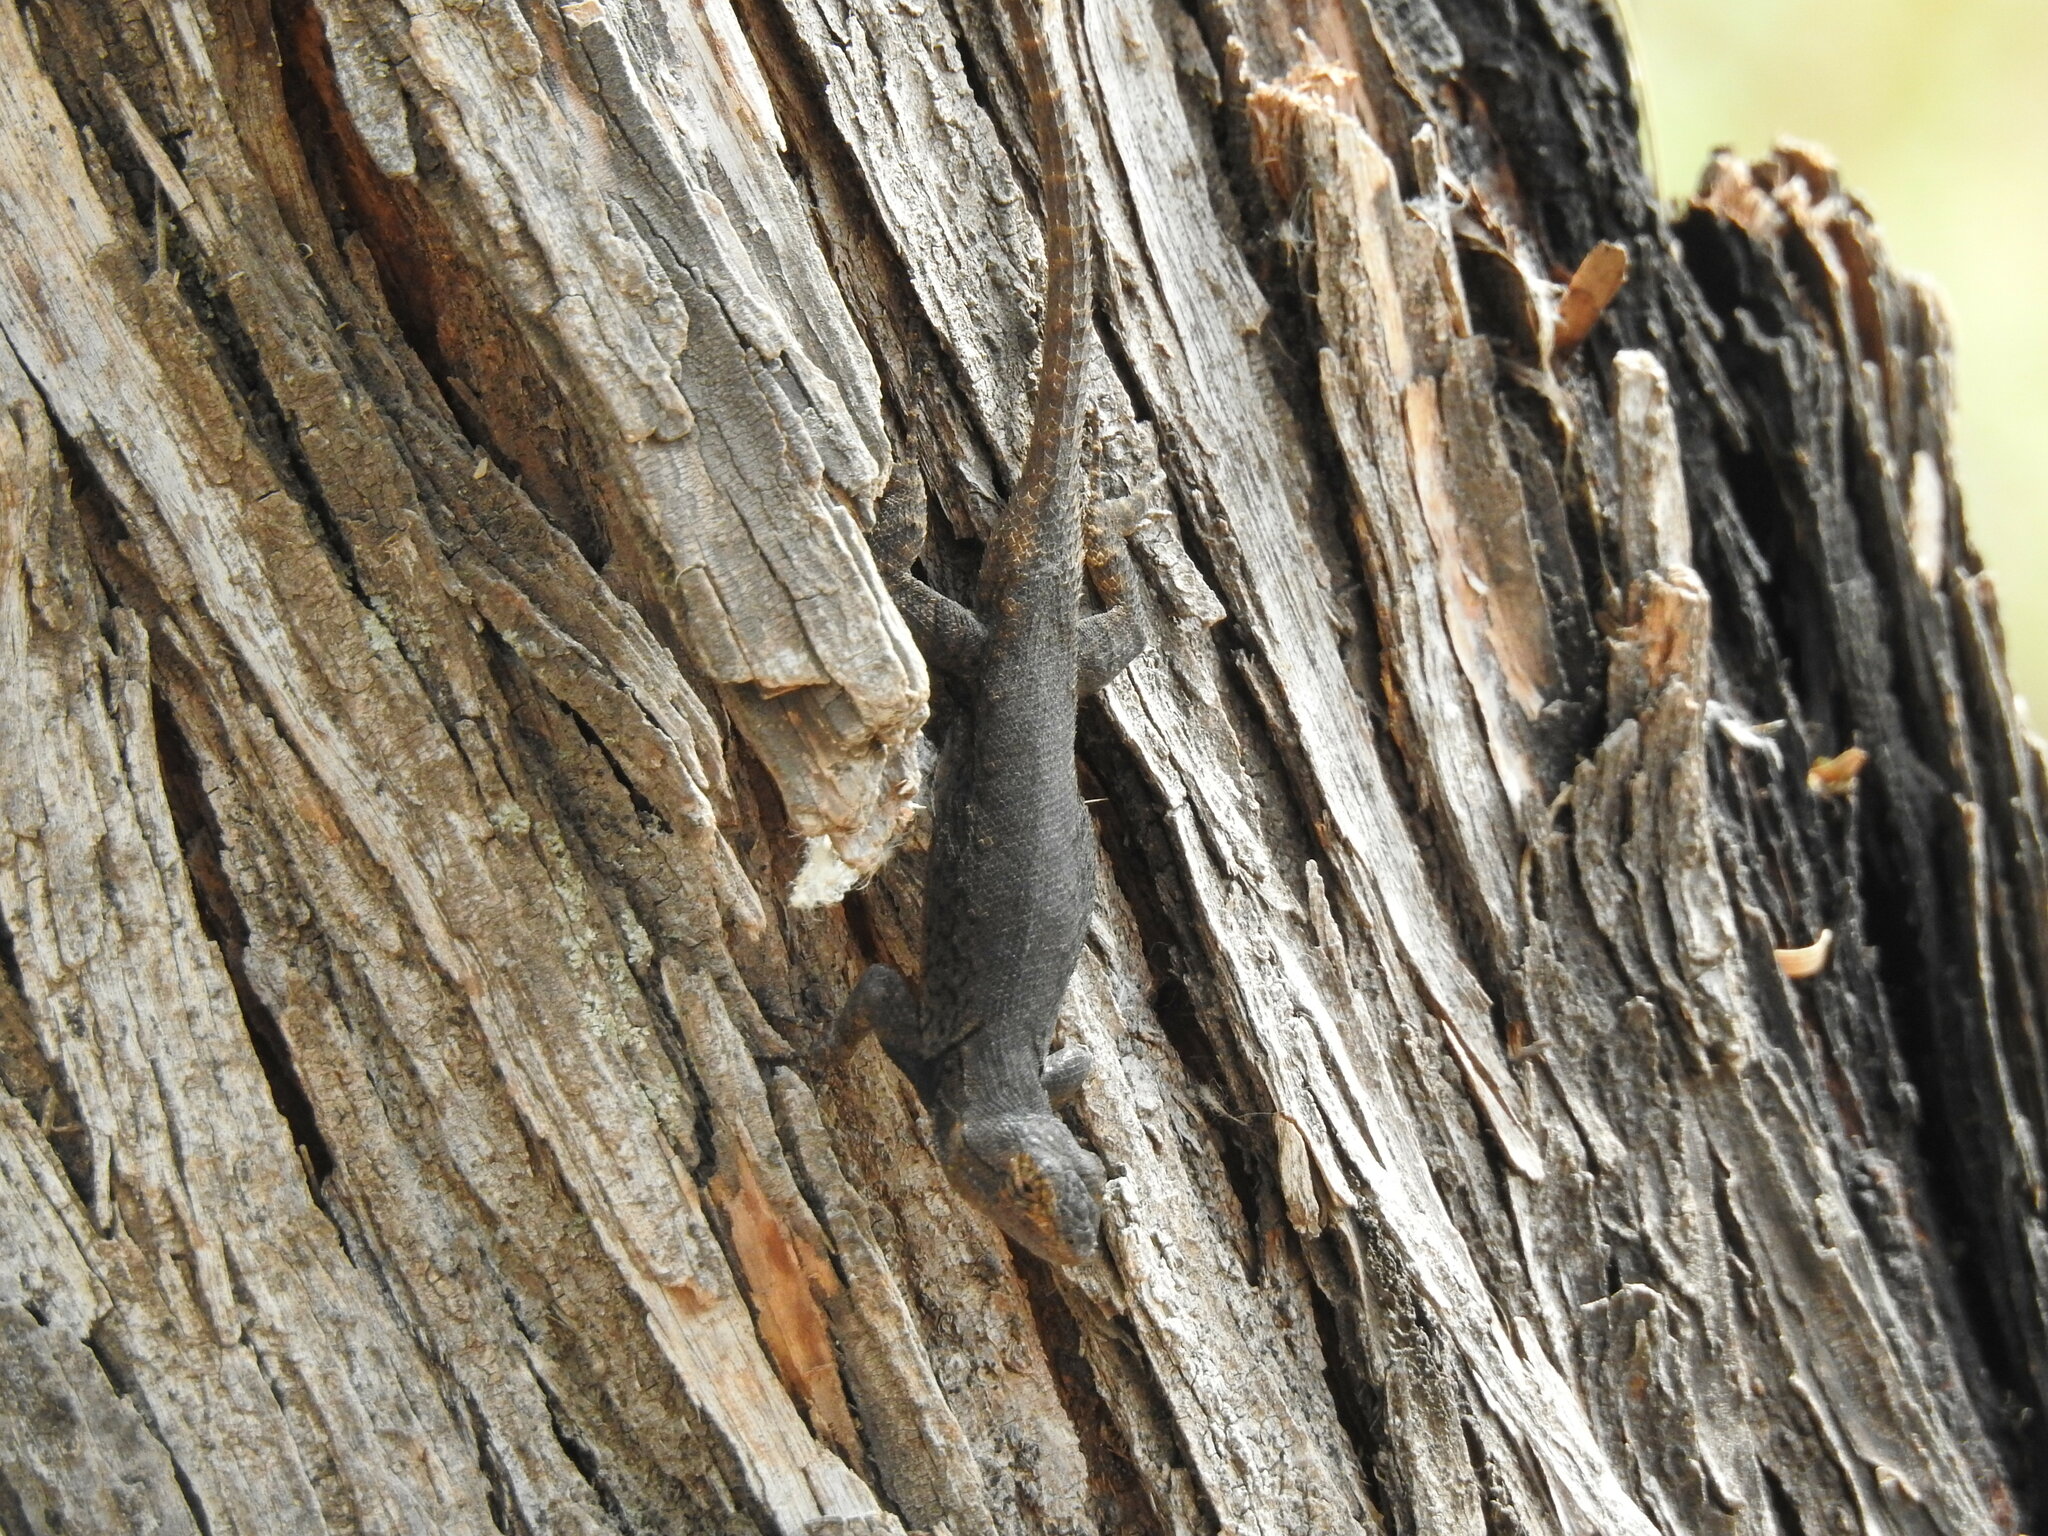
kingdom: Animalia
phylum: Chordata
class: Squamata
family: Phrynosomatidae
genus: Sceloporus
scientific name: Sceloporus grammicus
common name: Mesquite lizard
